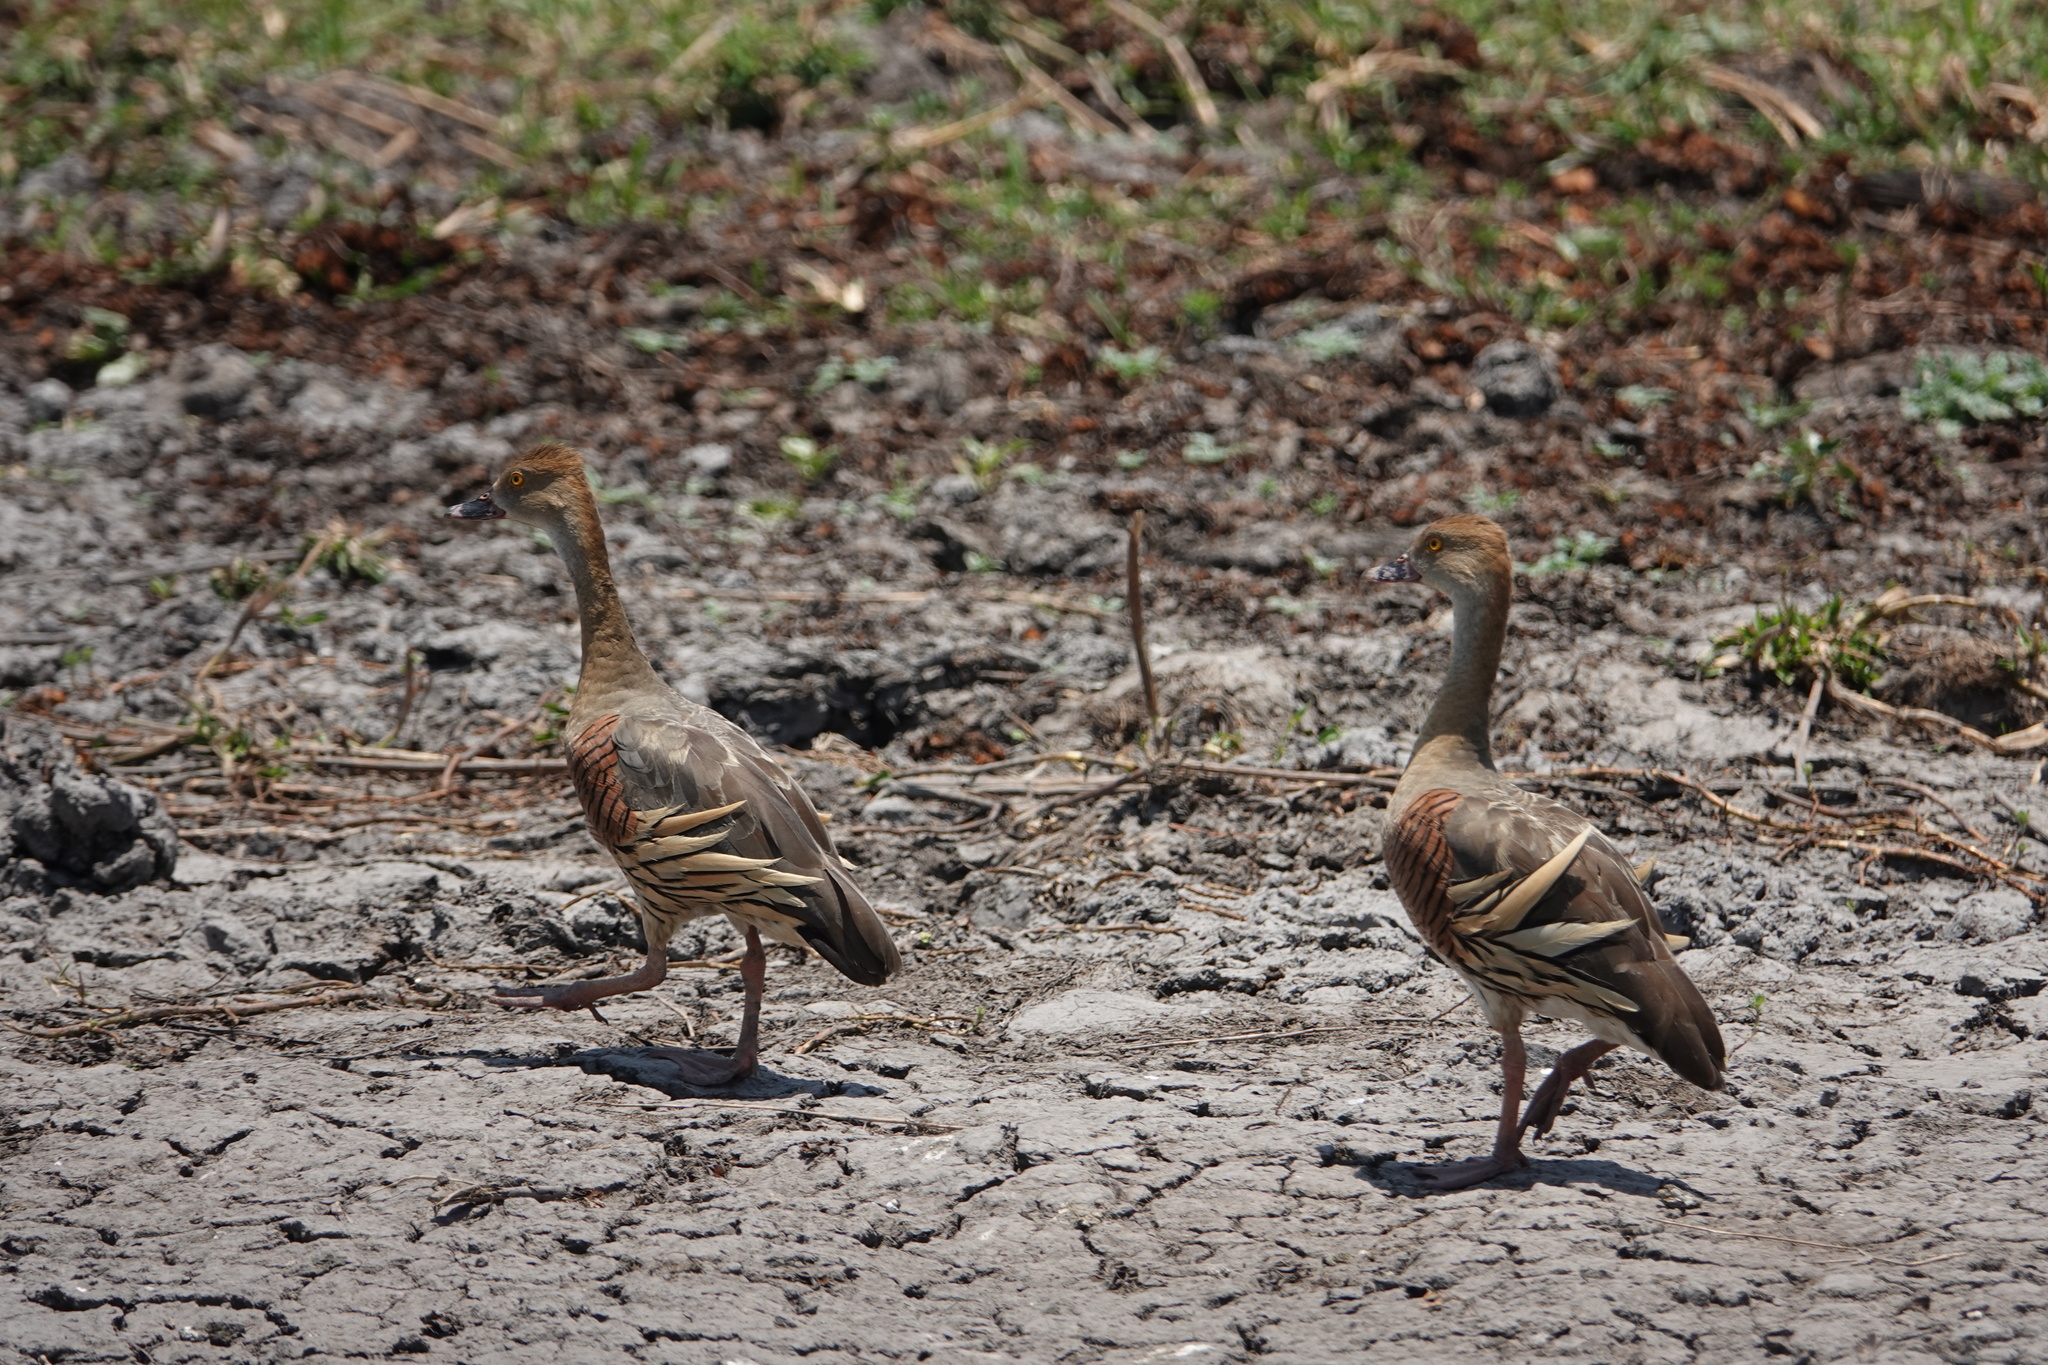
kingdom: Animalia
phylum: Chordata
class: Aves
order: Anseriformes
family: Anatidae
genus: Dendrocygna
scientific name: Dendrocygna eytoni
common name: Plumed whistling-duck
